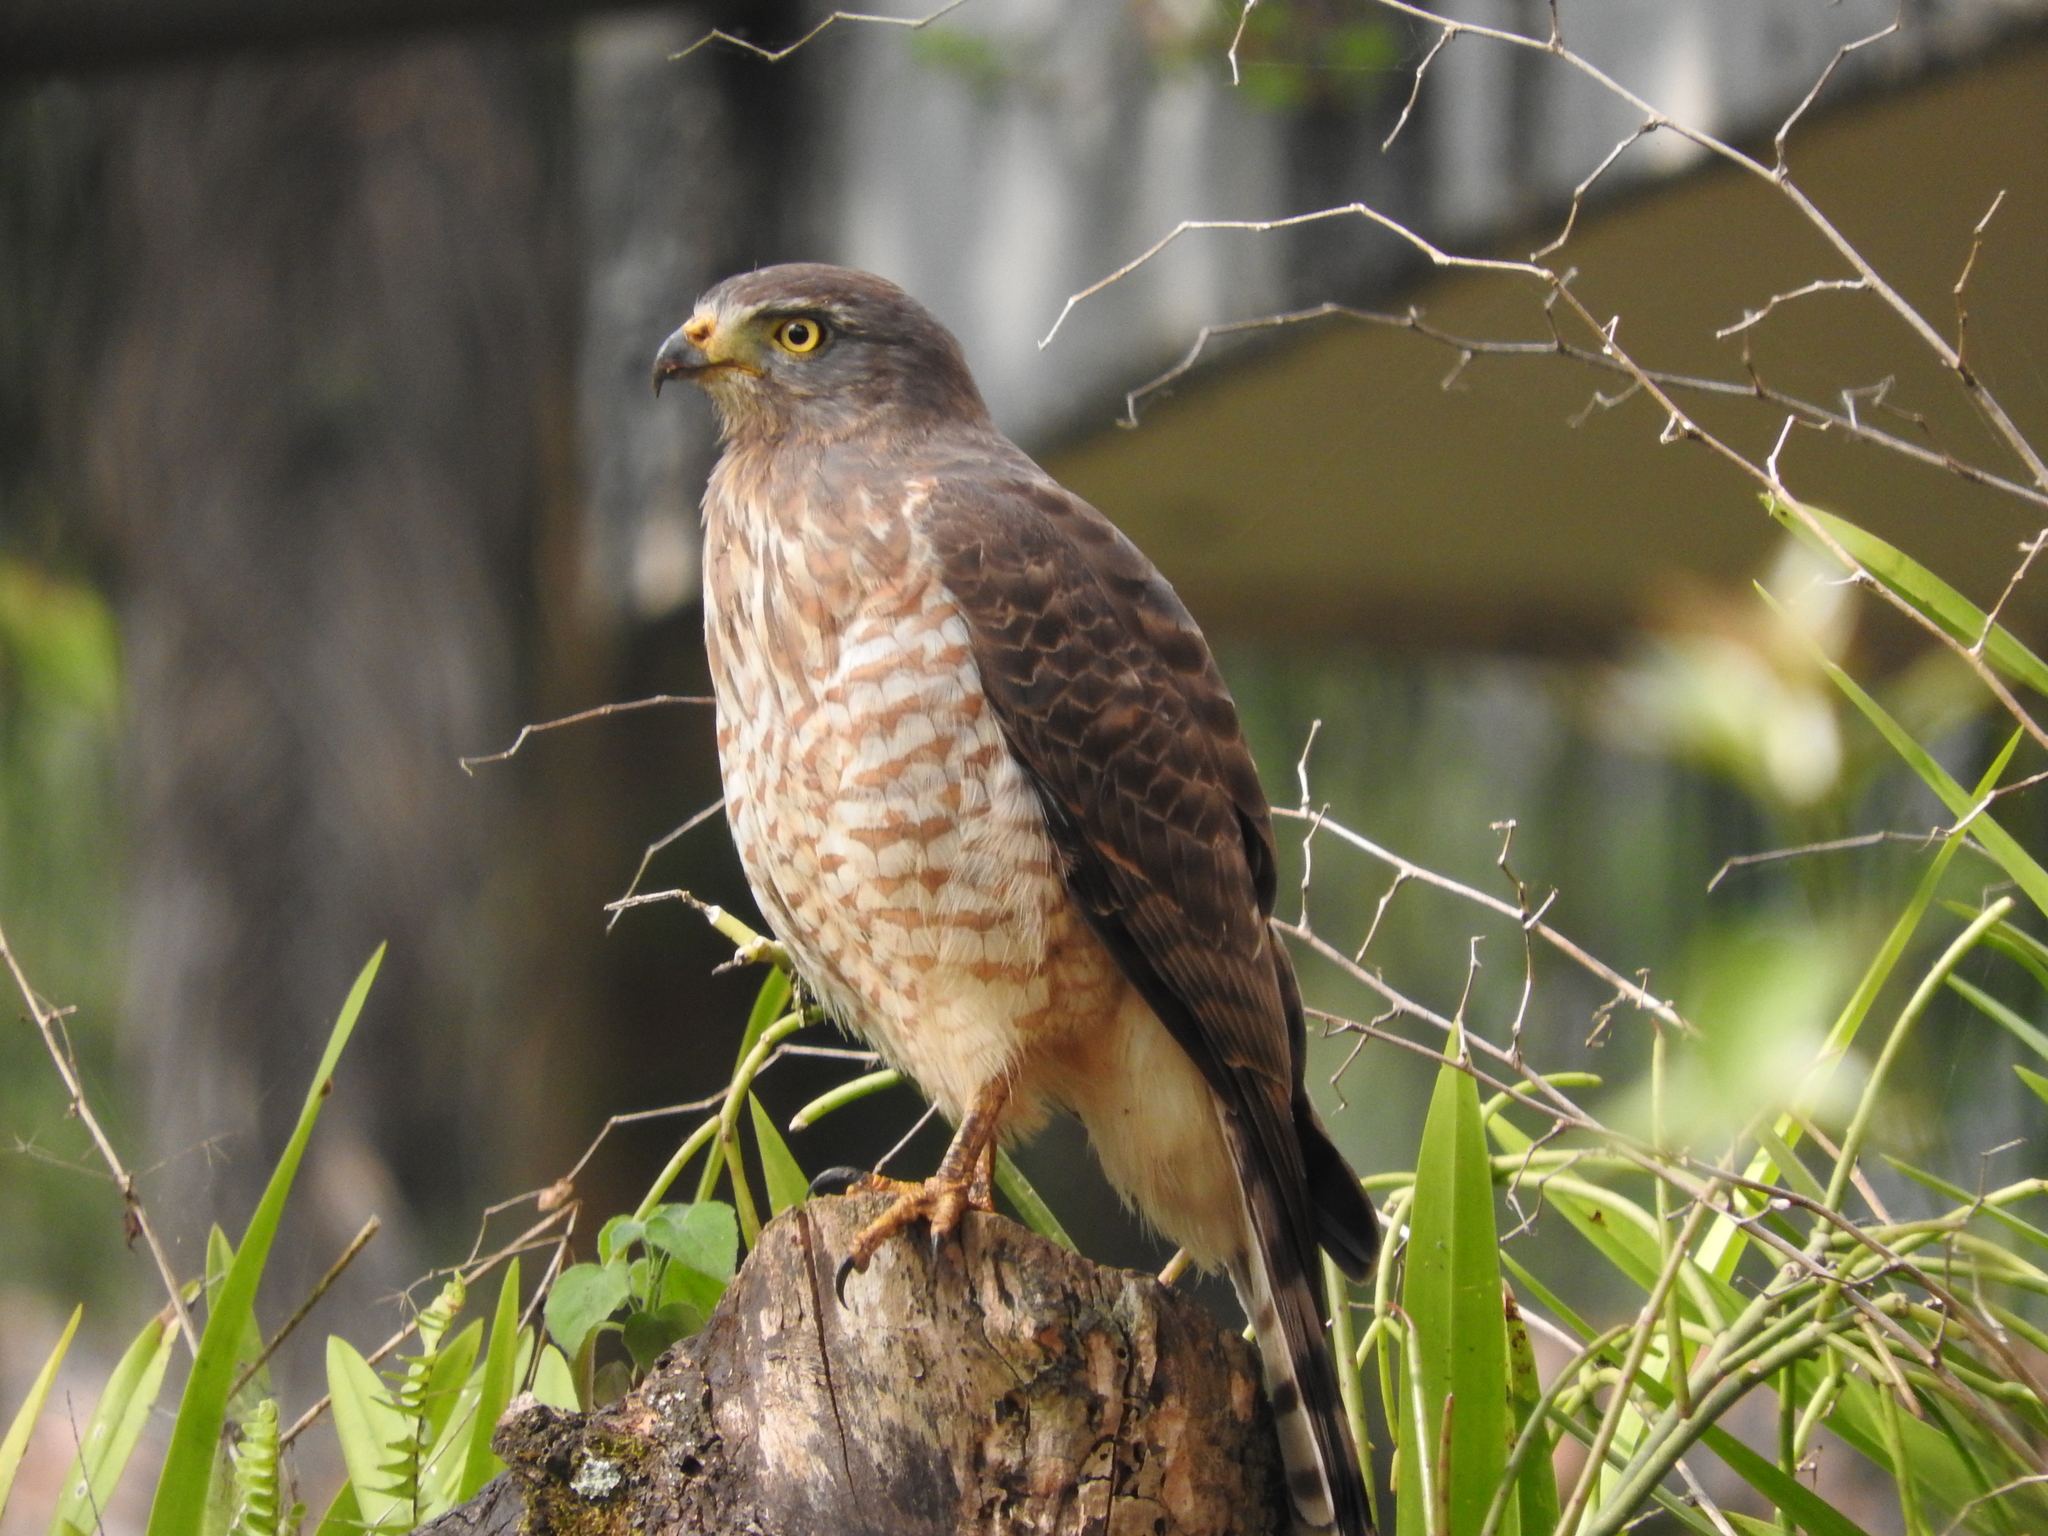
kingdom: Animalia
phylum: Chordata
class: Aves
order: Accipitriformes
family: Accipitridae
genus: Rupornis
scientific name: Rupornis magnirostris
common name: Roadside hawk
